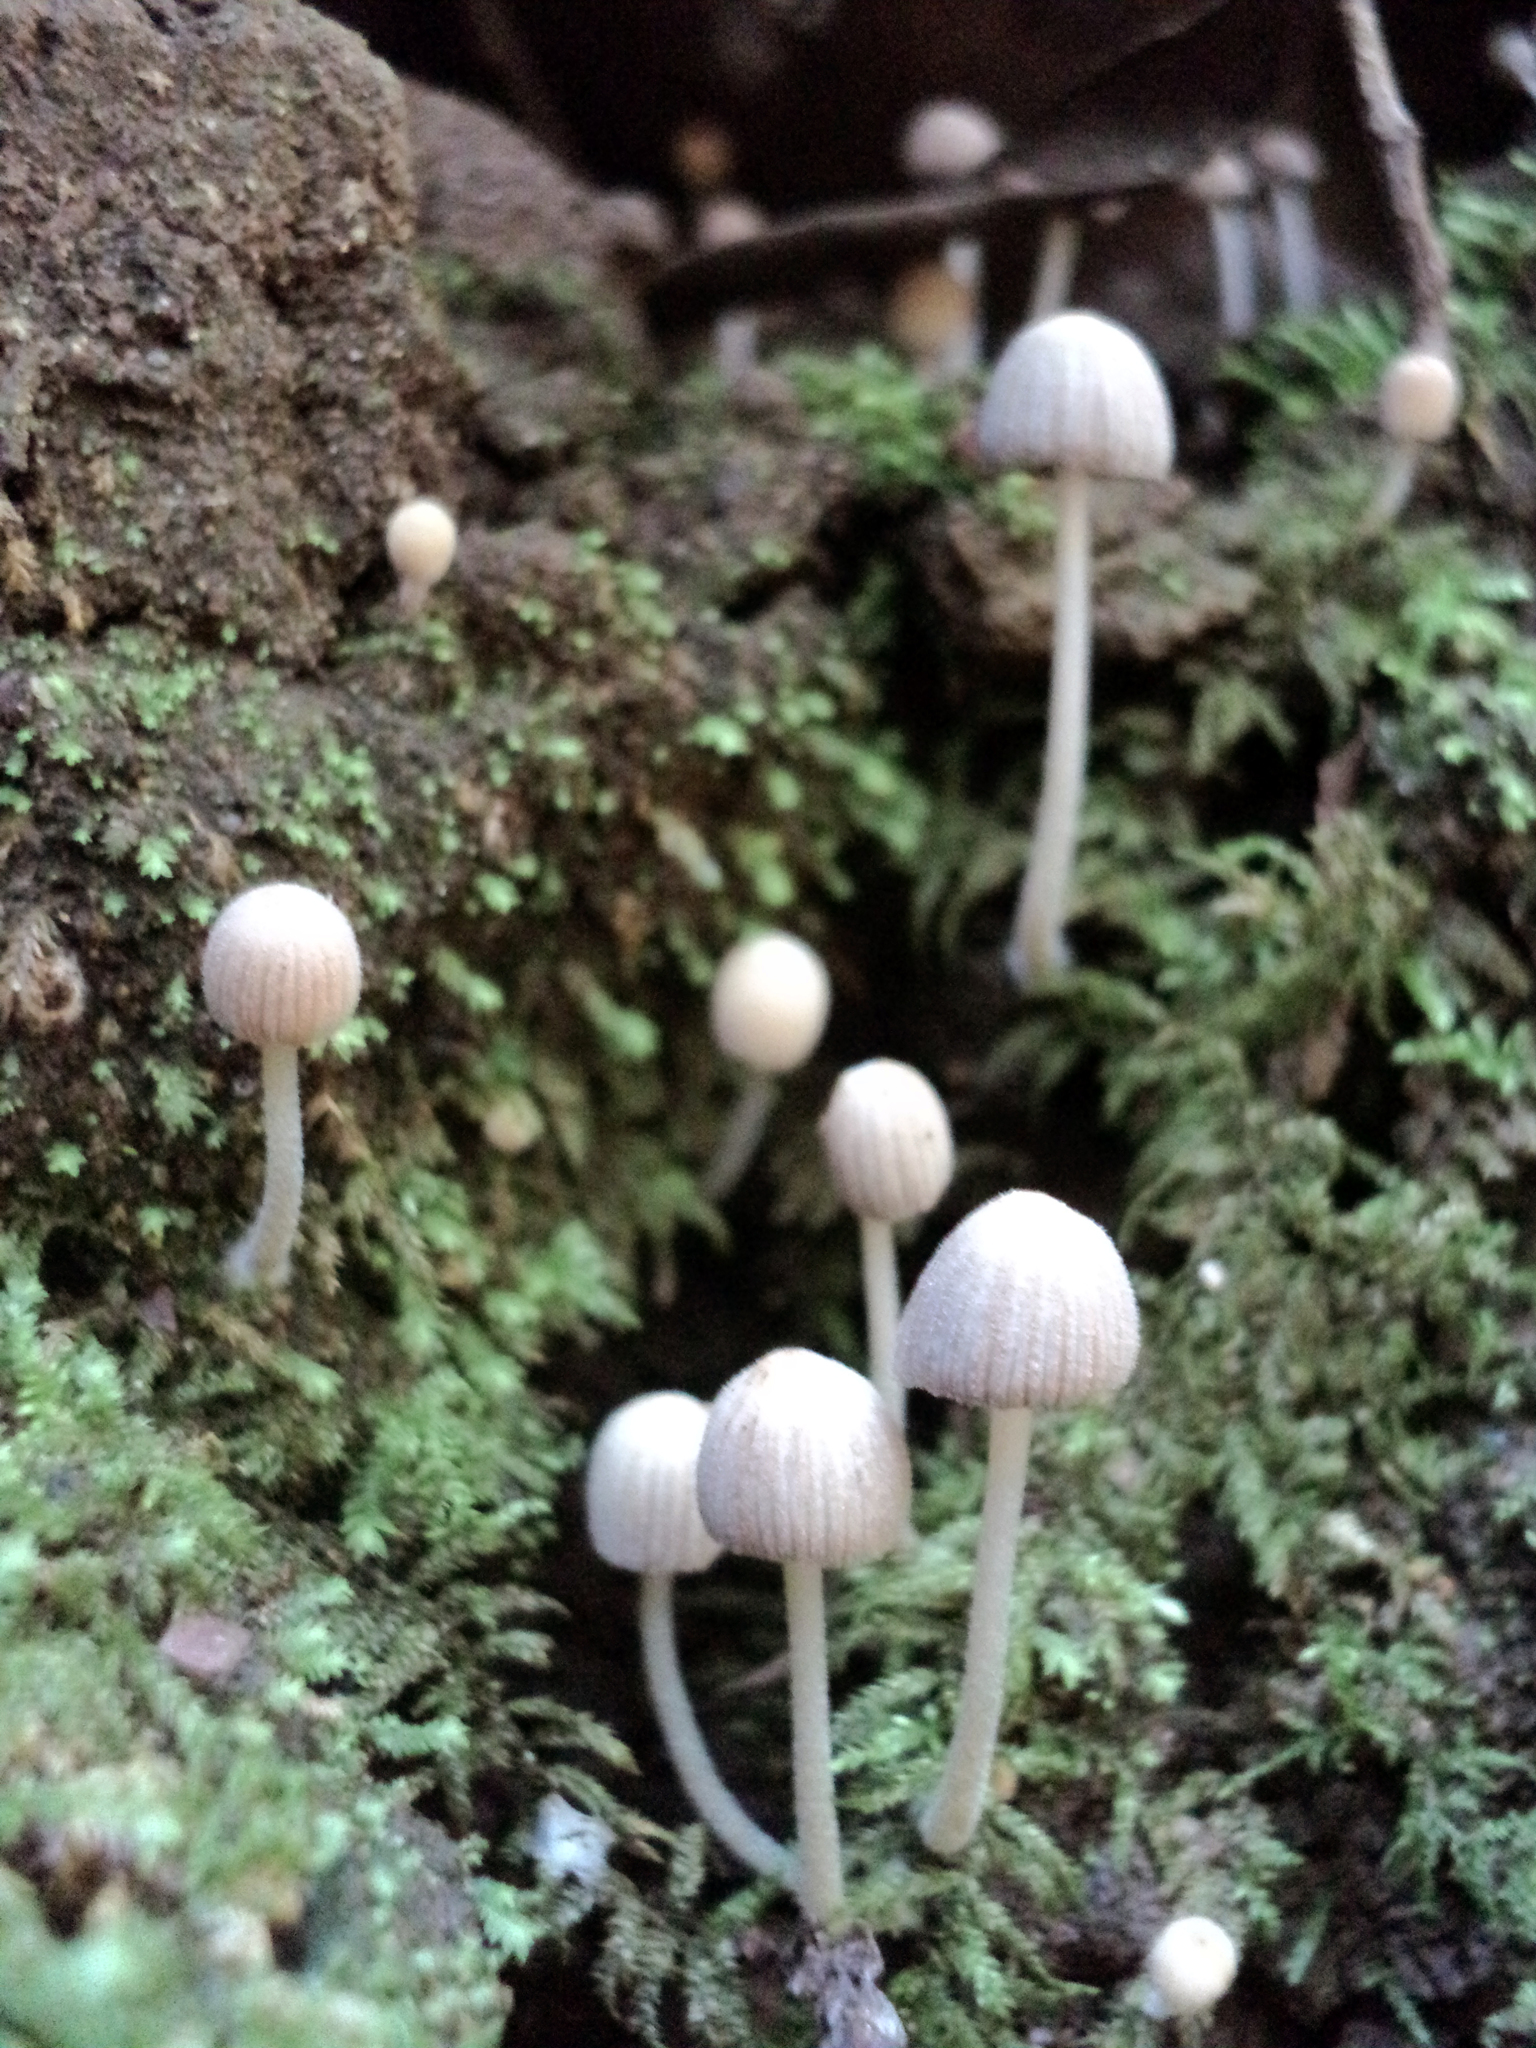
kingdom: Fungi
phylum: Basidiomycota
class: Agaricomycetes
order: Agaricales
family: Psathyrellaceae
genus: Coprinellus
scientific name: Coprinellus disseminatus
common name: Fairies' bonnets
